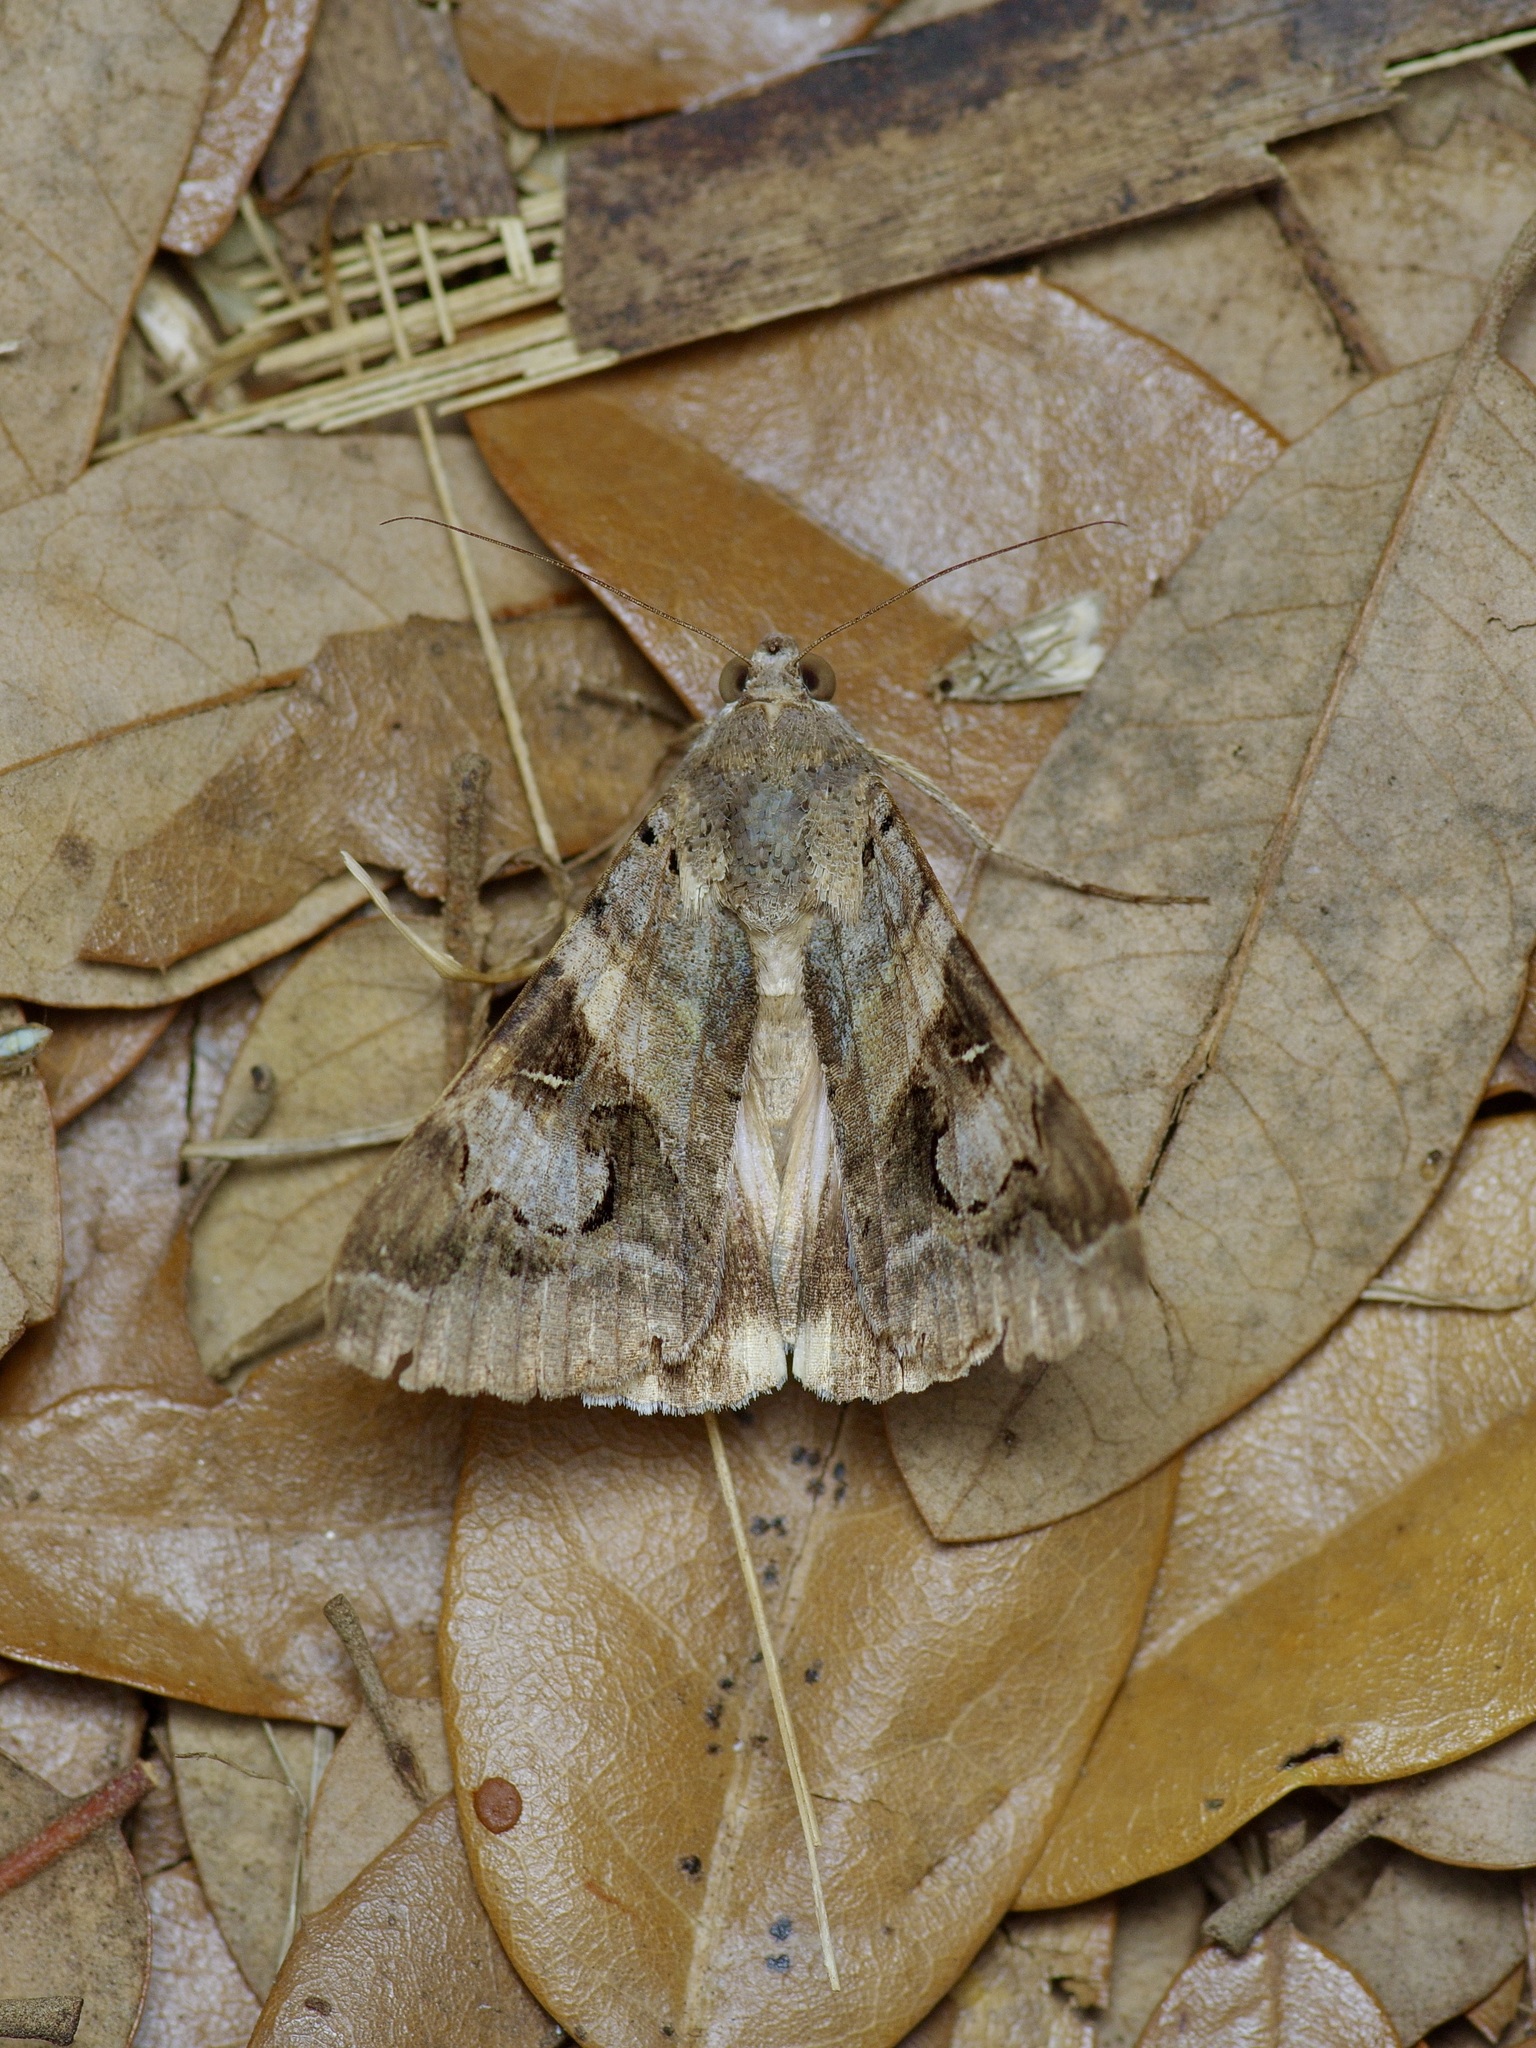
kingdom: Animalia
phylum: Arthropoda
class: Insecta
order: Lepidoptera
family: Erebidae
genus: Melipotis
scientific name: Melipotis indomita
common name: Moth
